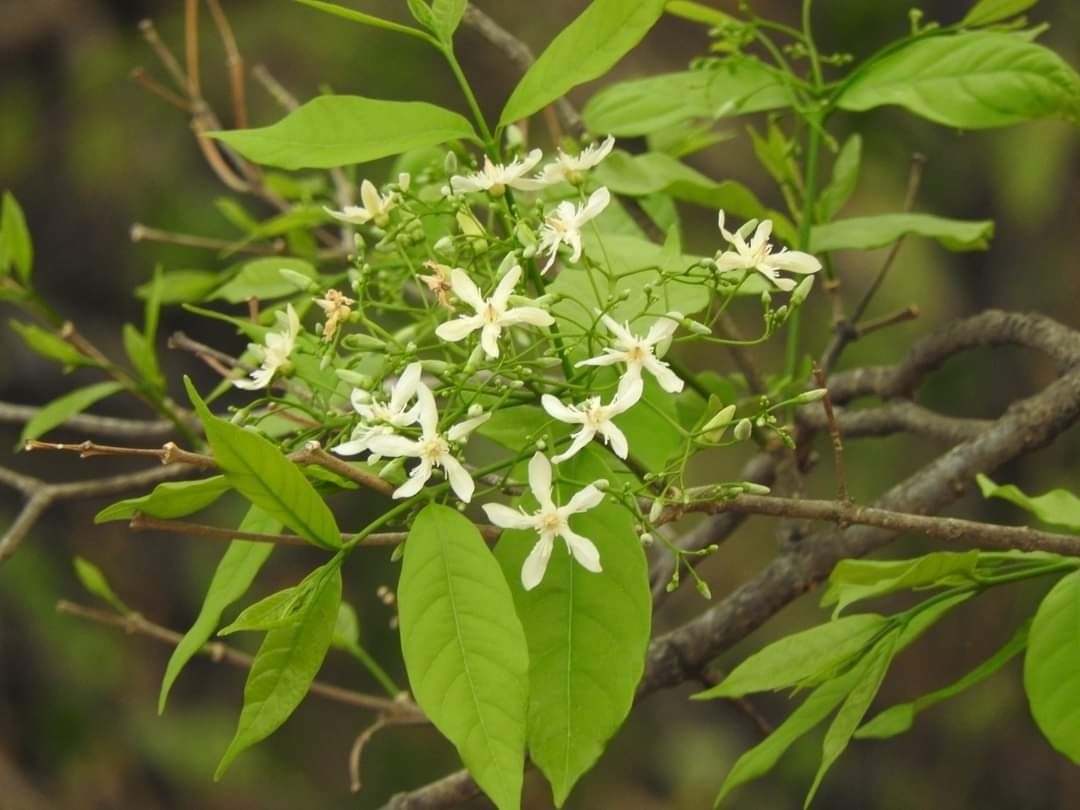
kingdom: Plantae
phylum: Tracheophyta
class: Magnoliopsida
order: Gentianales
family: Apocynaceae
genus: Wrightia
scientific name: Wrightia tinctoria
